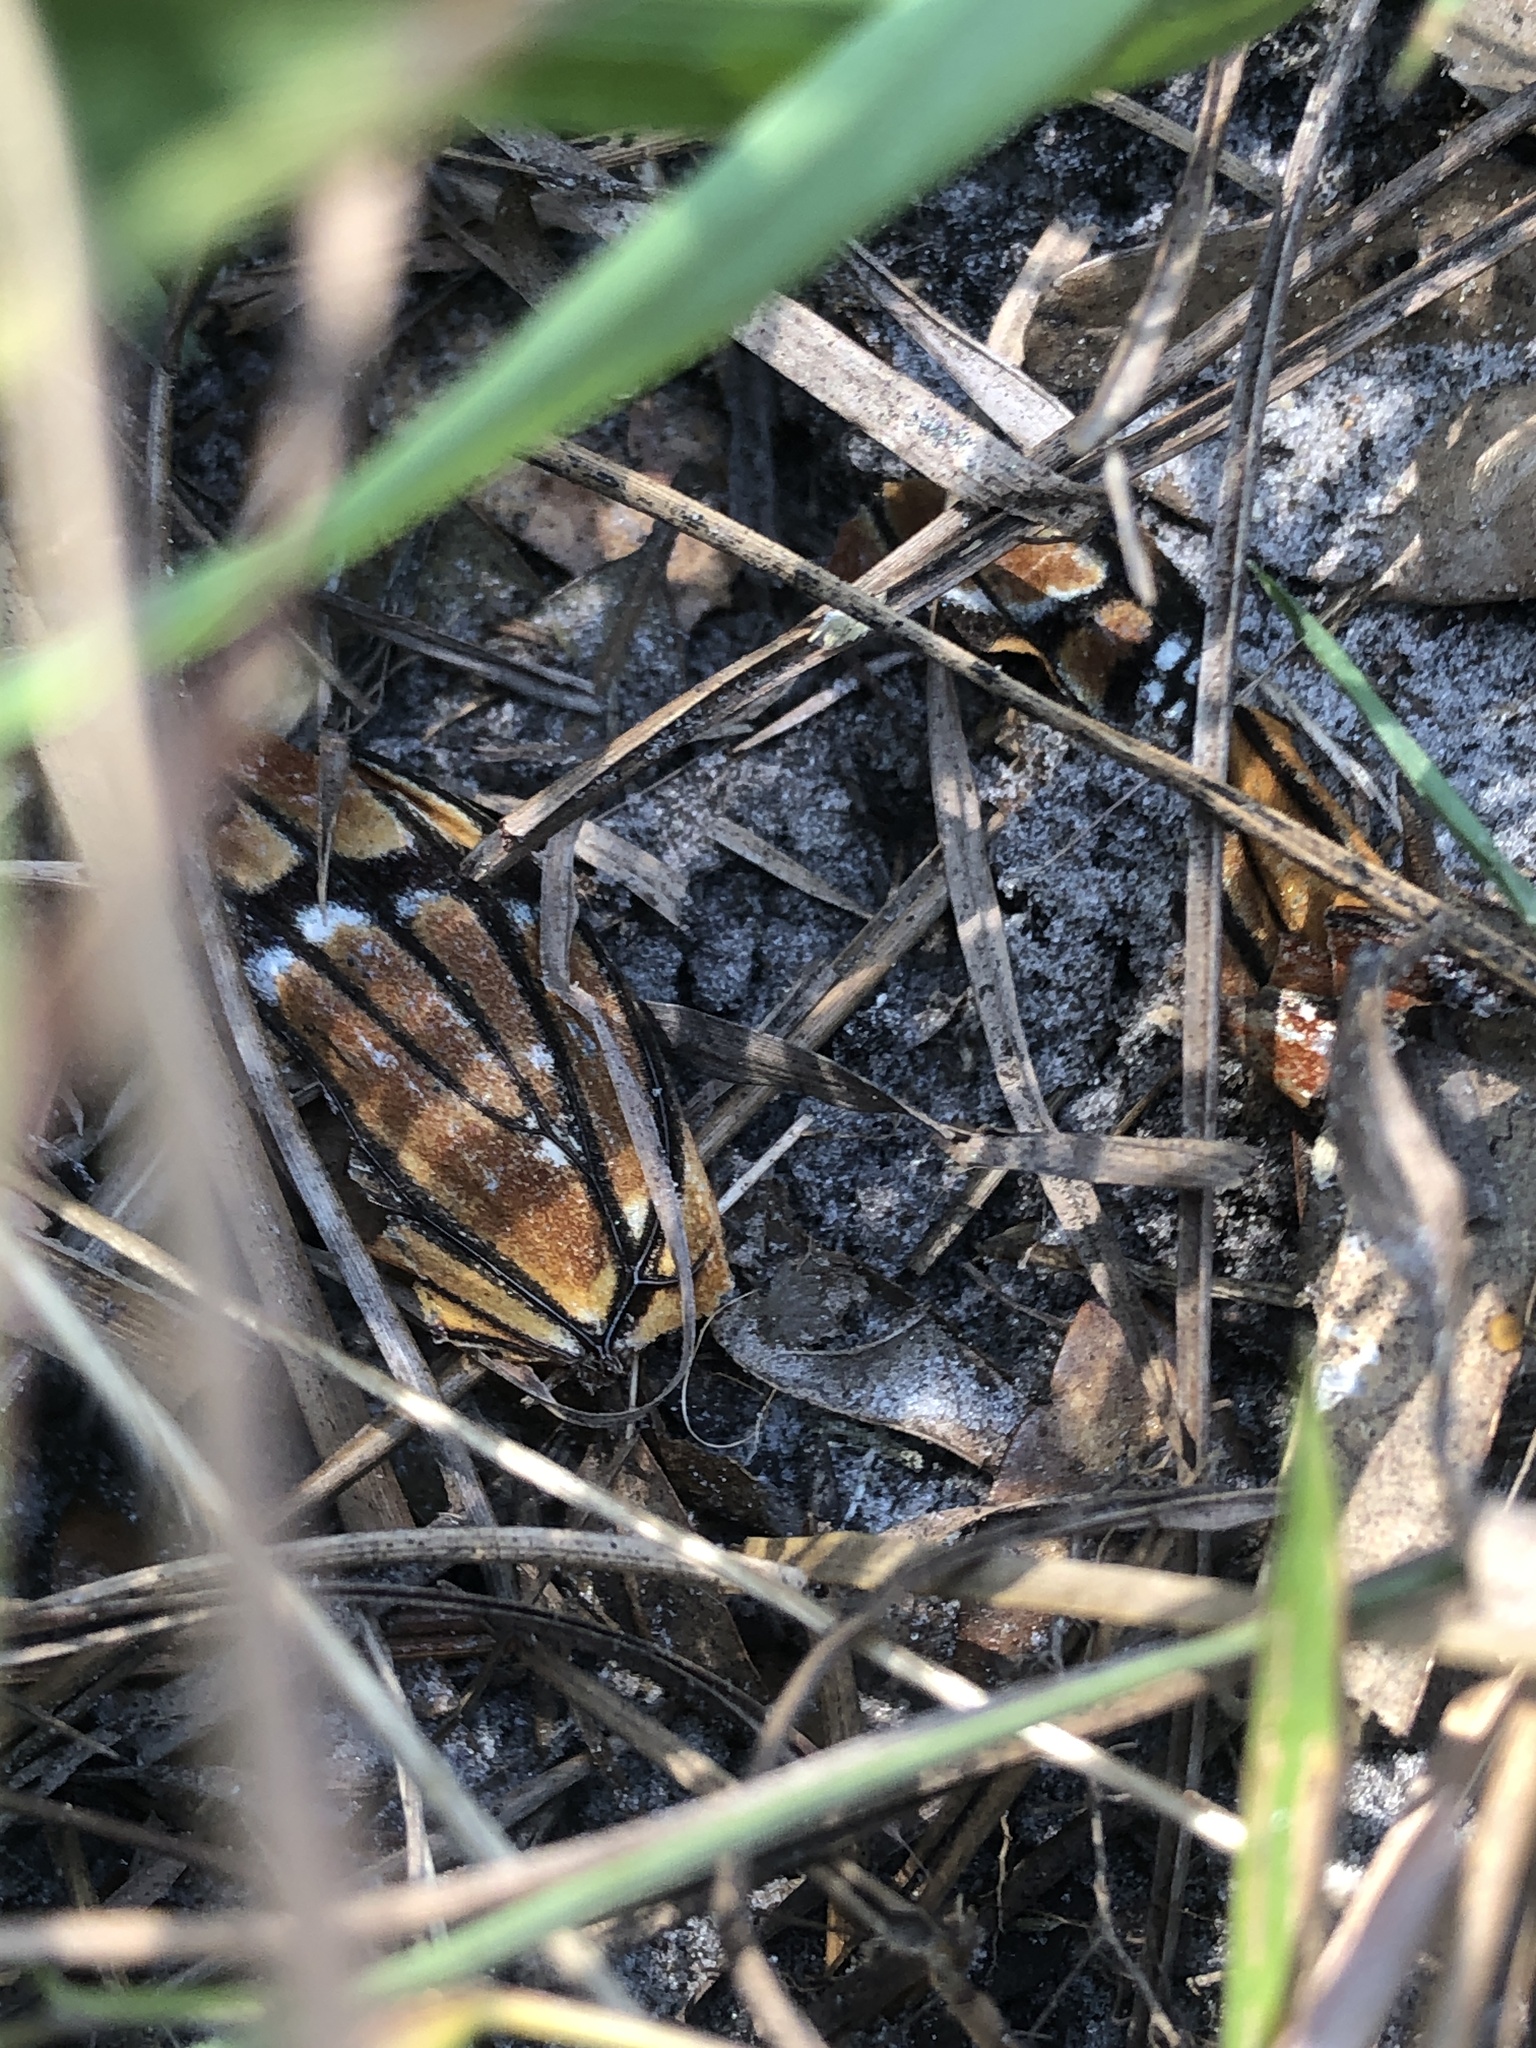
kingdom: Animalia
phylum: Arthropoda
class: Insecta
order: Lepidoptera
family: Nymphalidae
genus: Limenitis
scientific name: Limenitis archippus
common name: Viceroy
